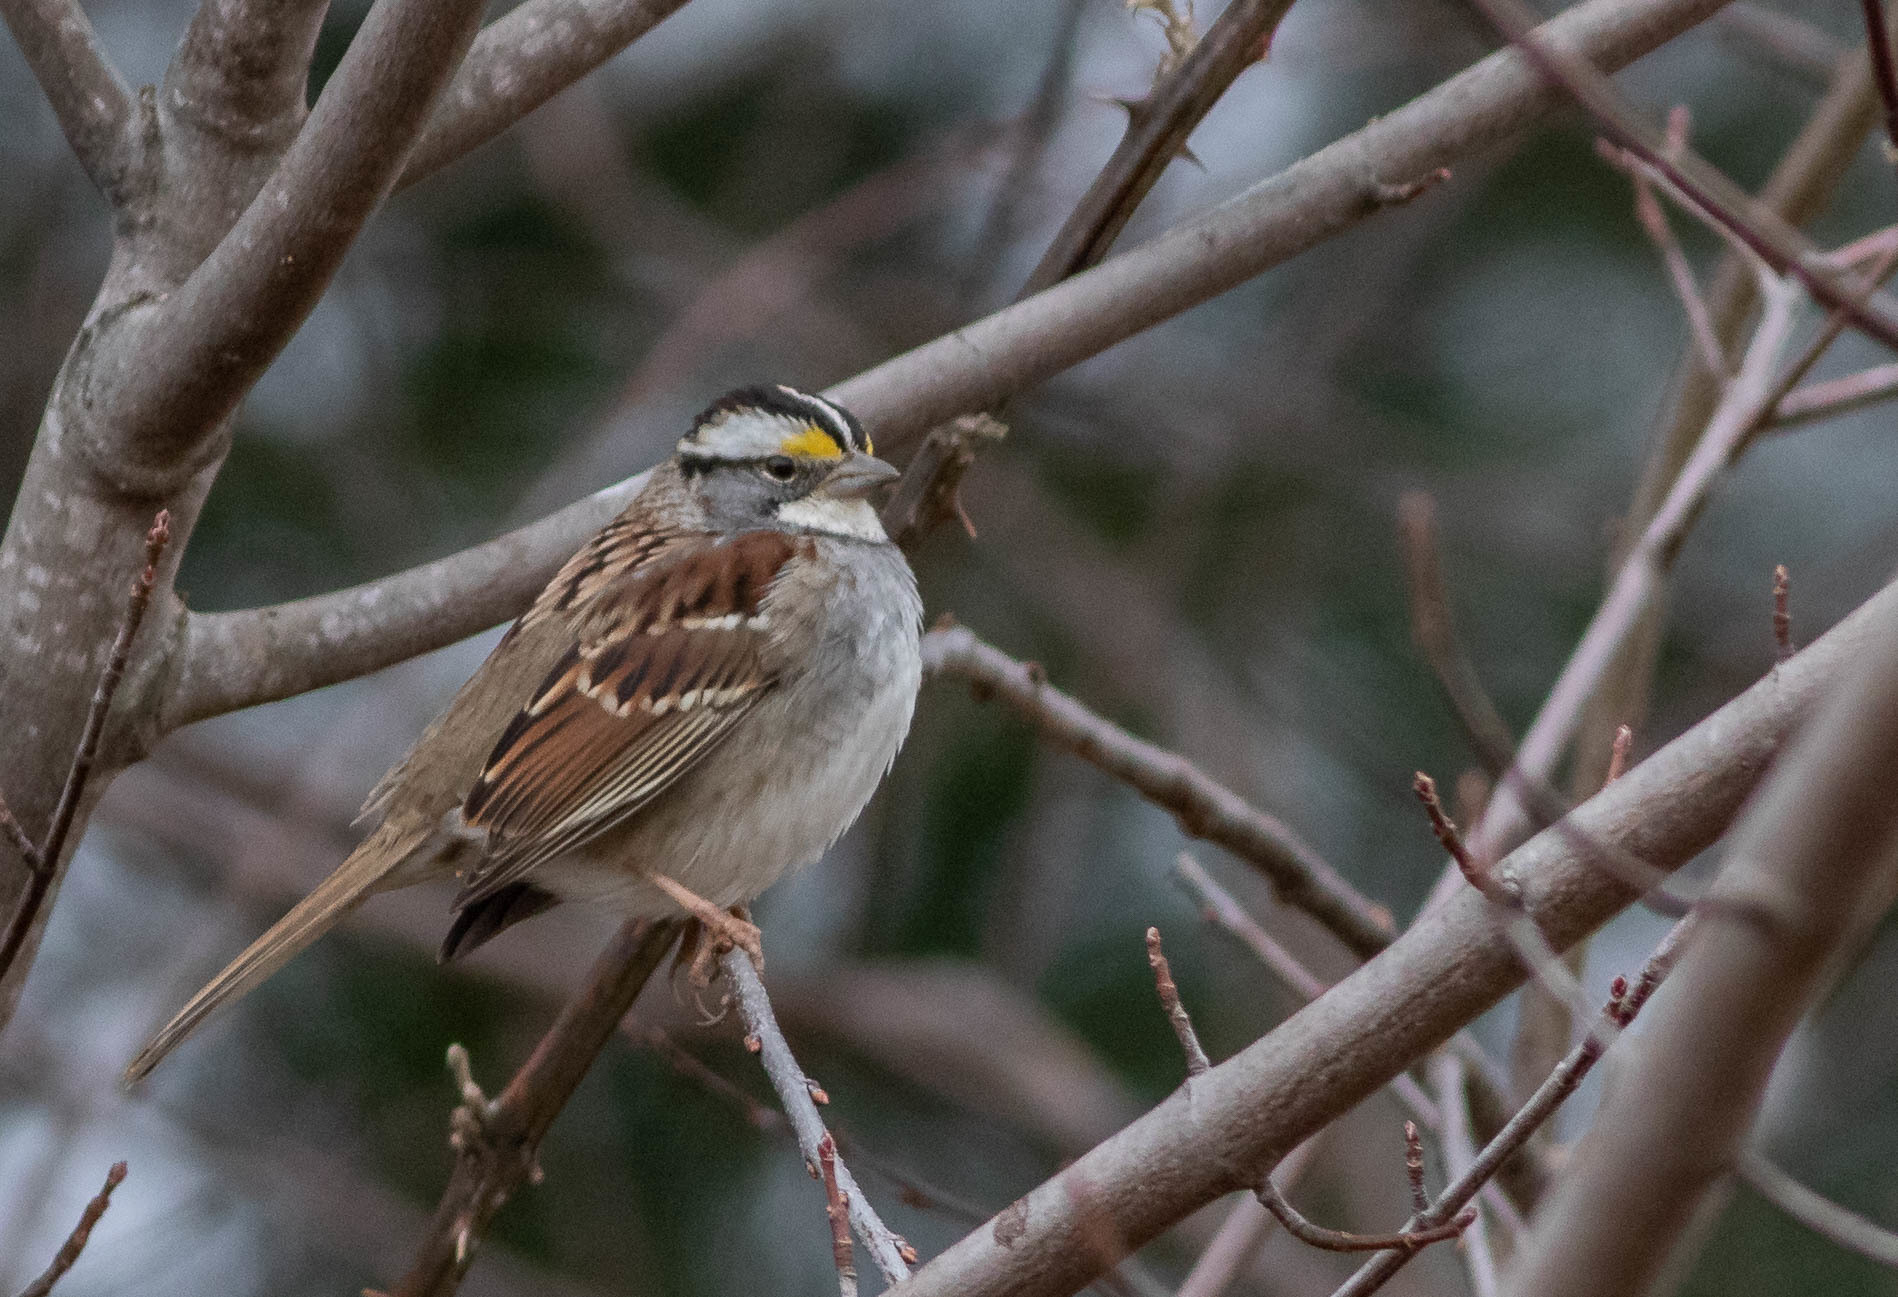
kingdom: Animalia
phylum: Chordata
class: Aves
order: Passeriformes
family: Passerellidae
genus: Zonotrichia
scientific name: Zonotrichia albicollis
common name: White-throated sparrow
